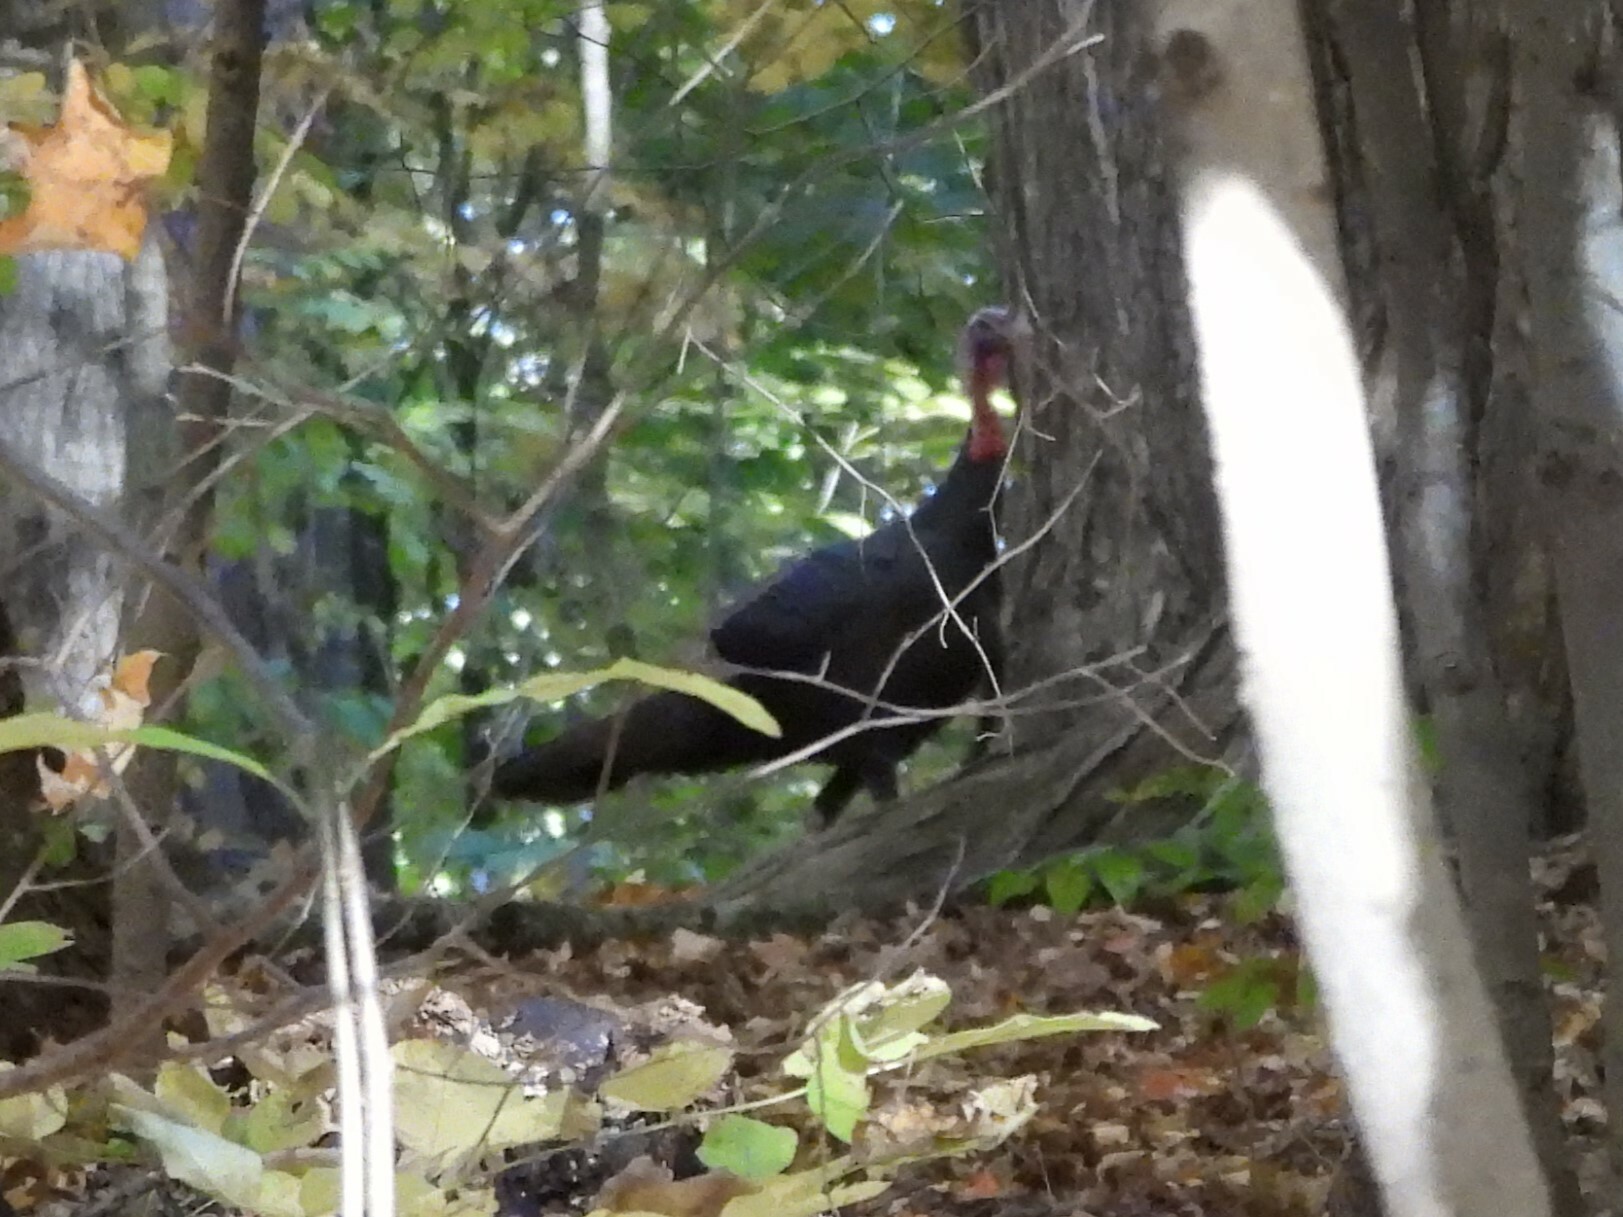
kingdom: Animalia
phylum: Chordata
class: Aves
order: Galliformes
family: Phasianidae
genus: Meleagris
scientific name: Meleagris gallopavo
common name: Wild turkey
